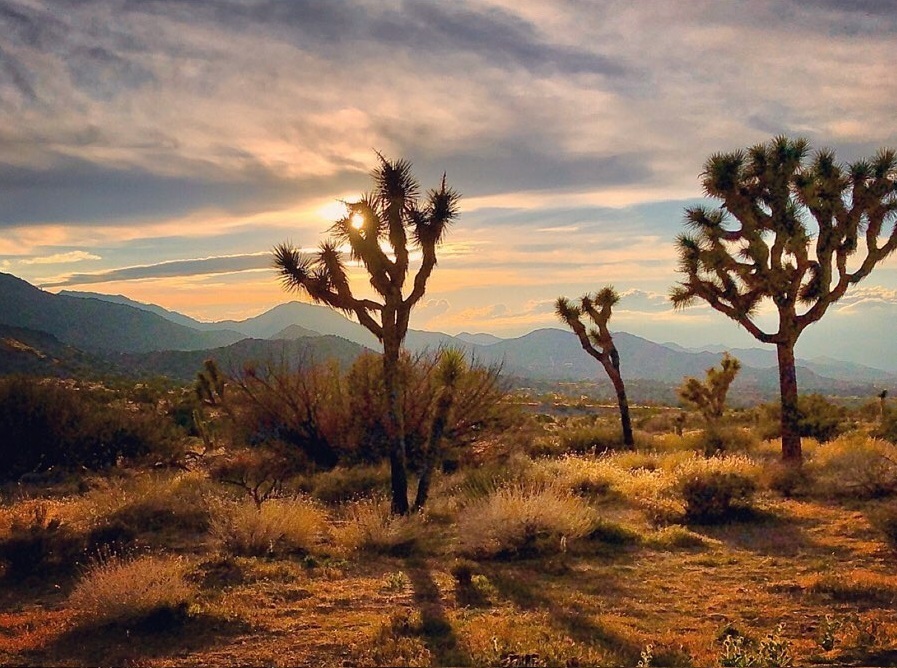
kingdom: Plantae
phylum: Tracheophyta
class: Liliopsida
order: Asparagales
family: Asparagaceae
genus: Yucca
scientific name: Yucca brevifolia
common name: Joshua tree
